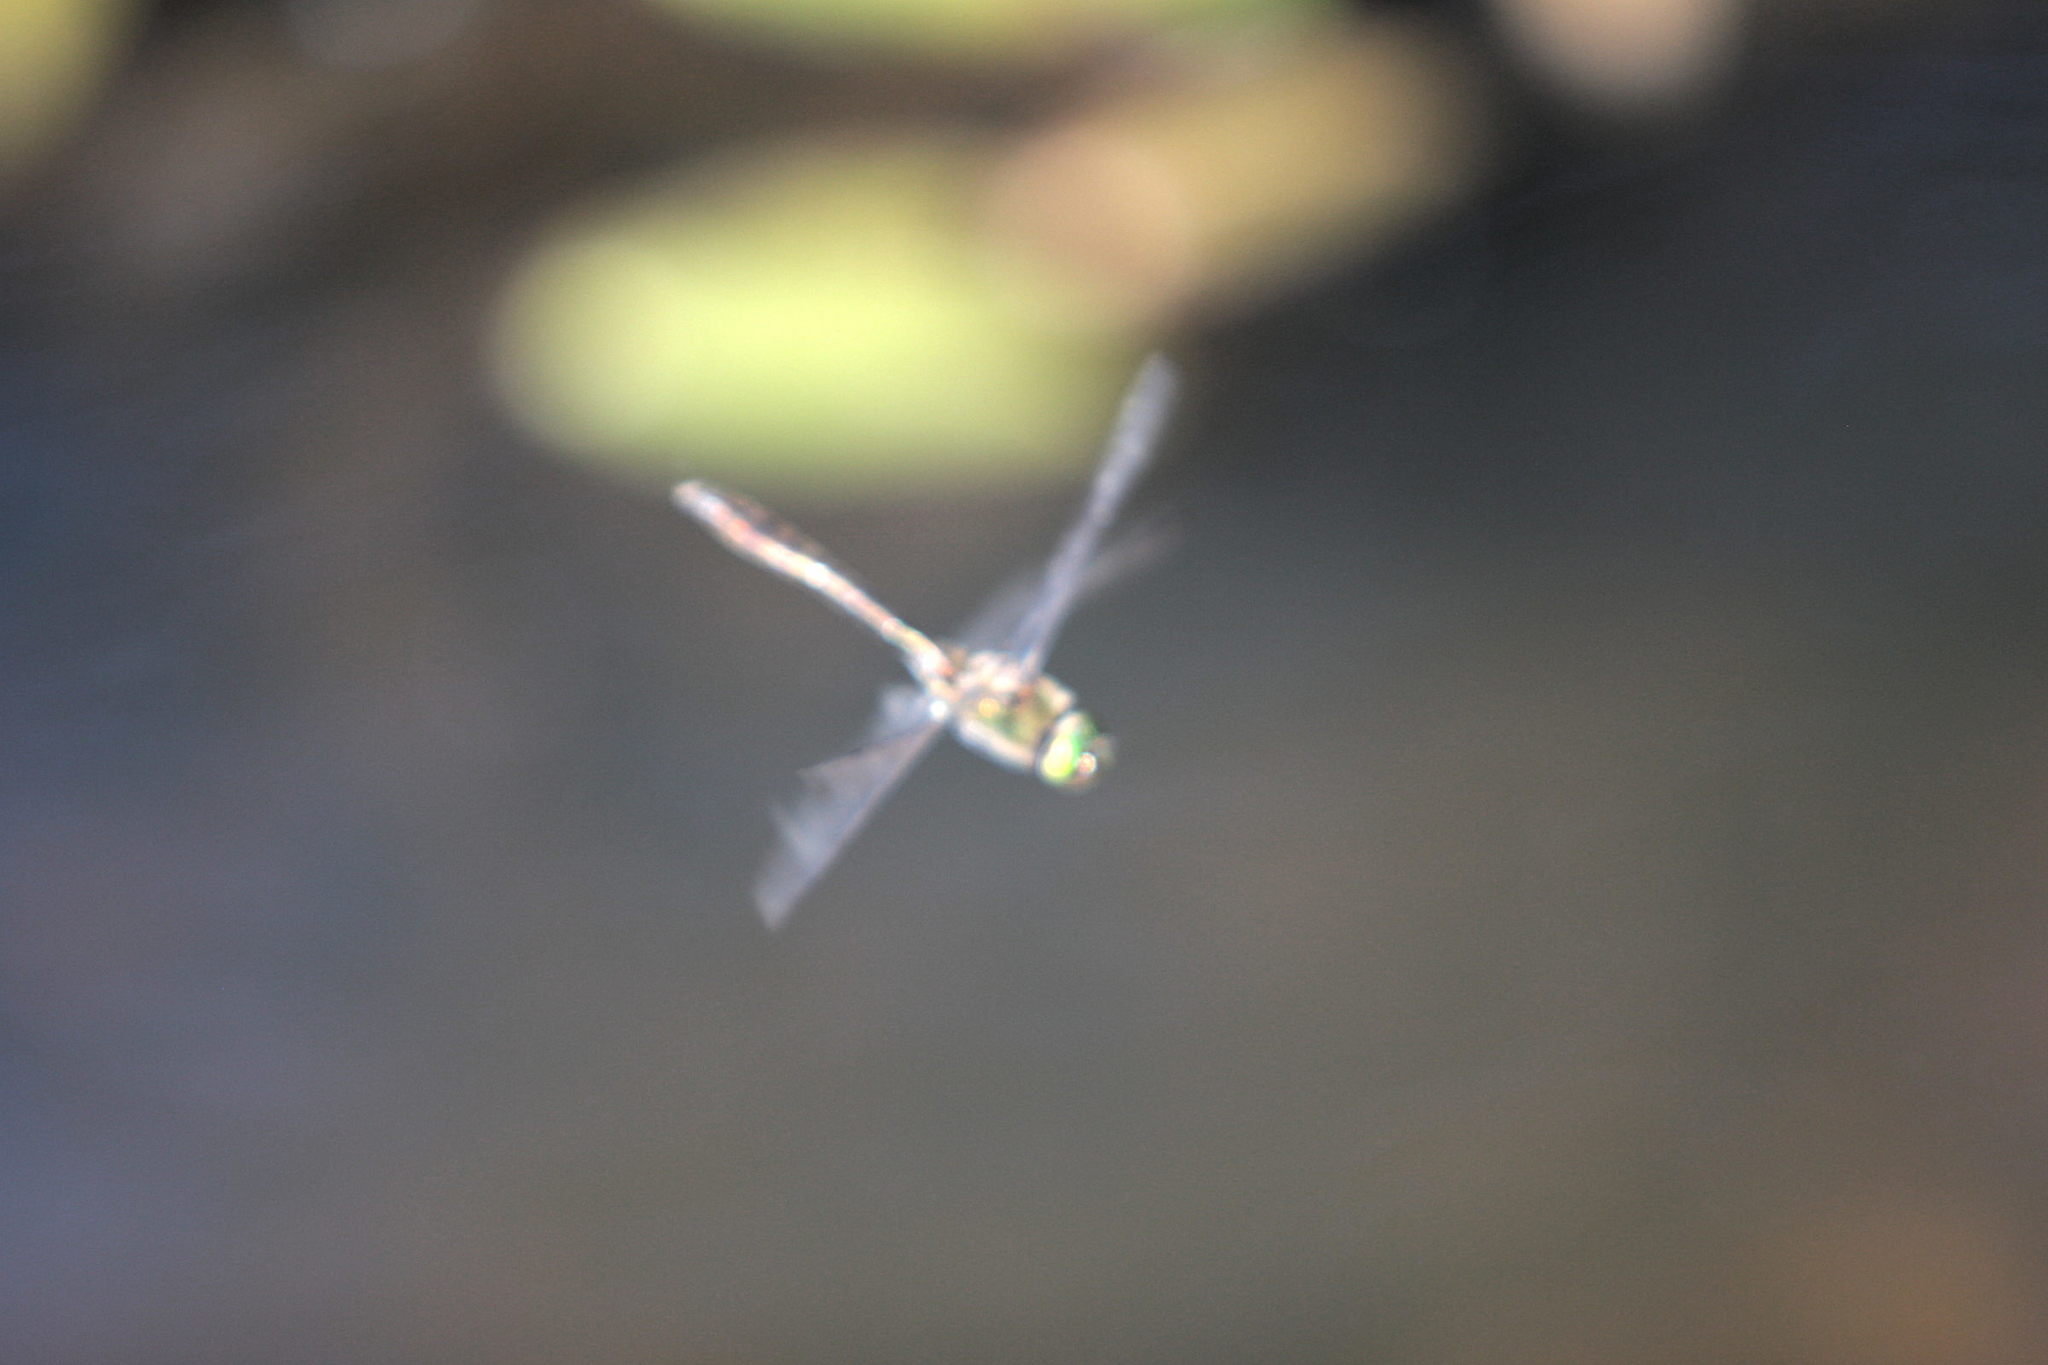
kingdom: Animalia
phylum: Arthropoda
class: Insecta
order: Odonata
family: Corduliidae
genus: Cordulia
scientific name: Cordulia aenea
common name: Downy emerald
